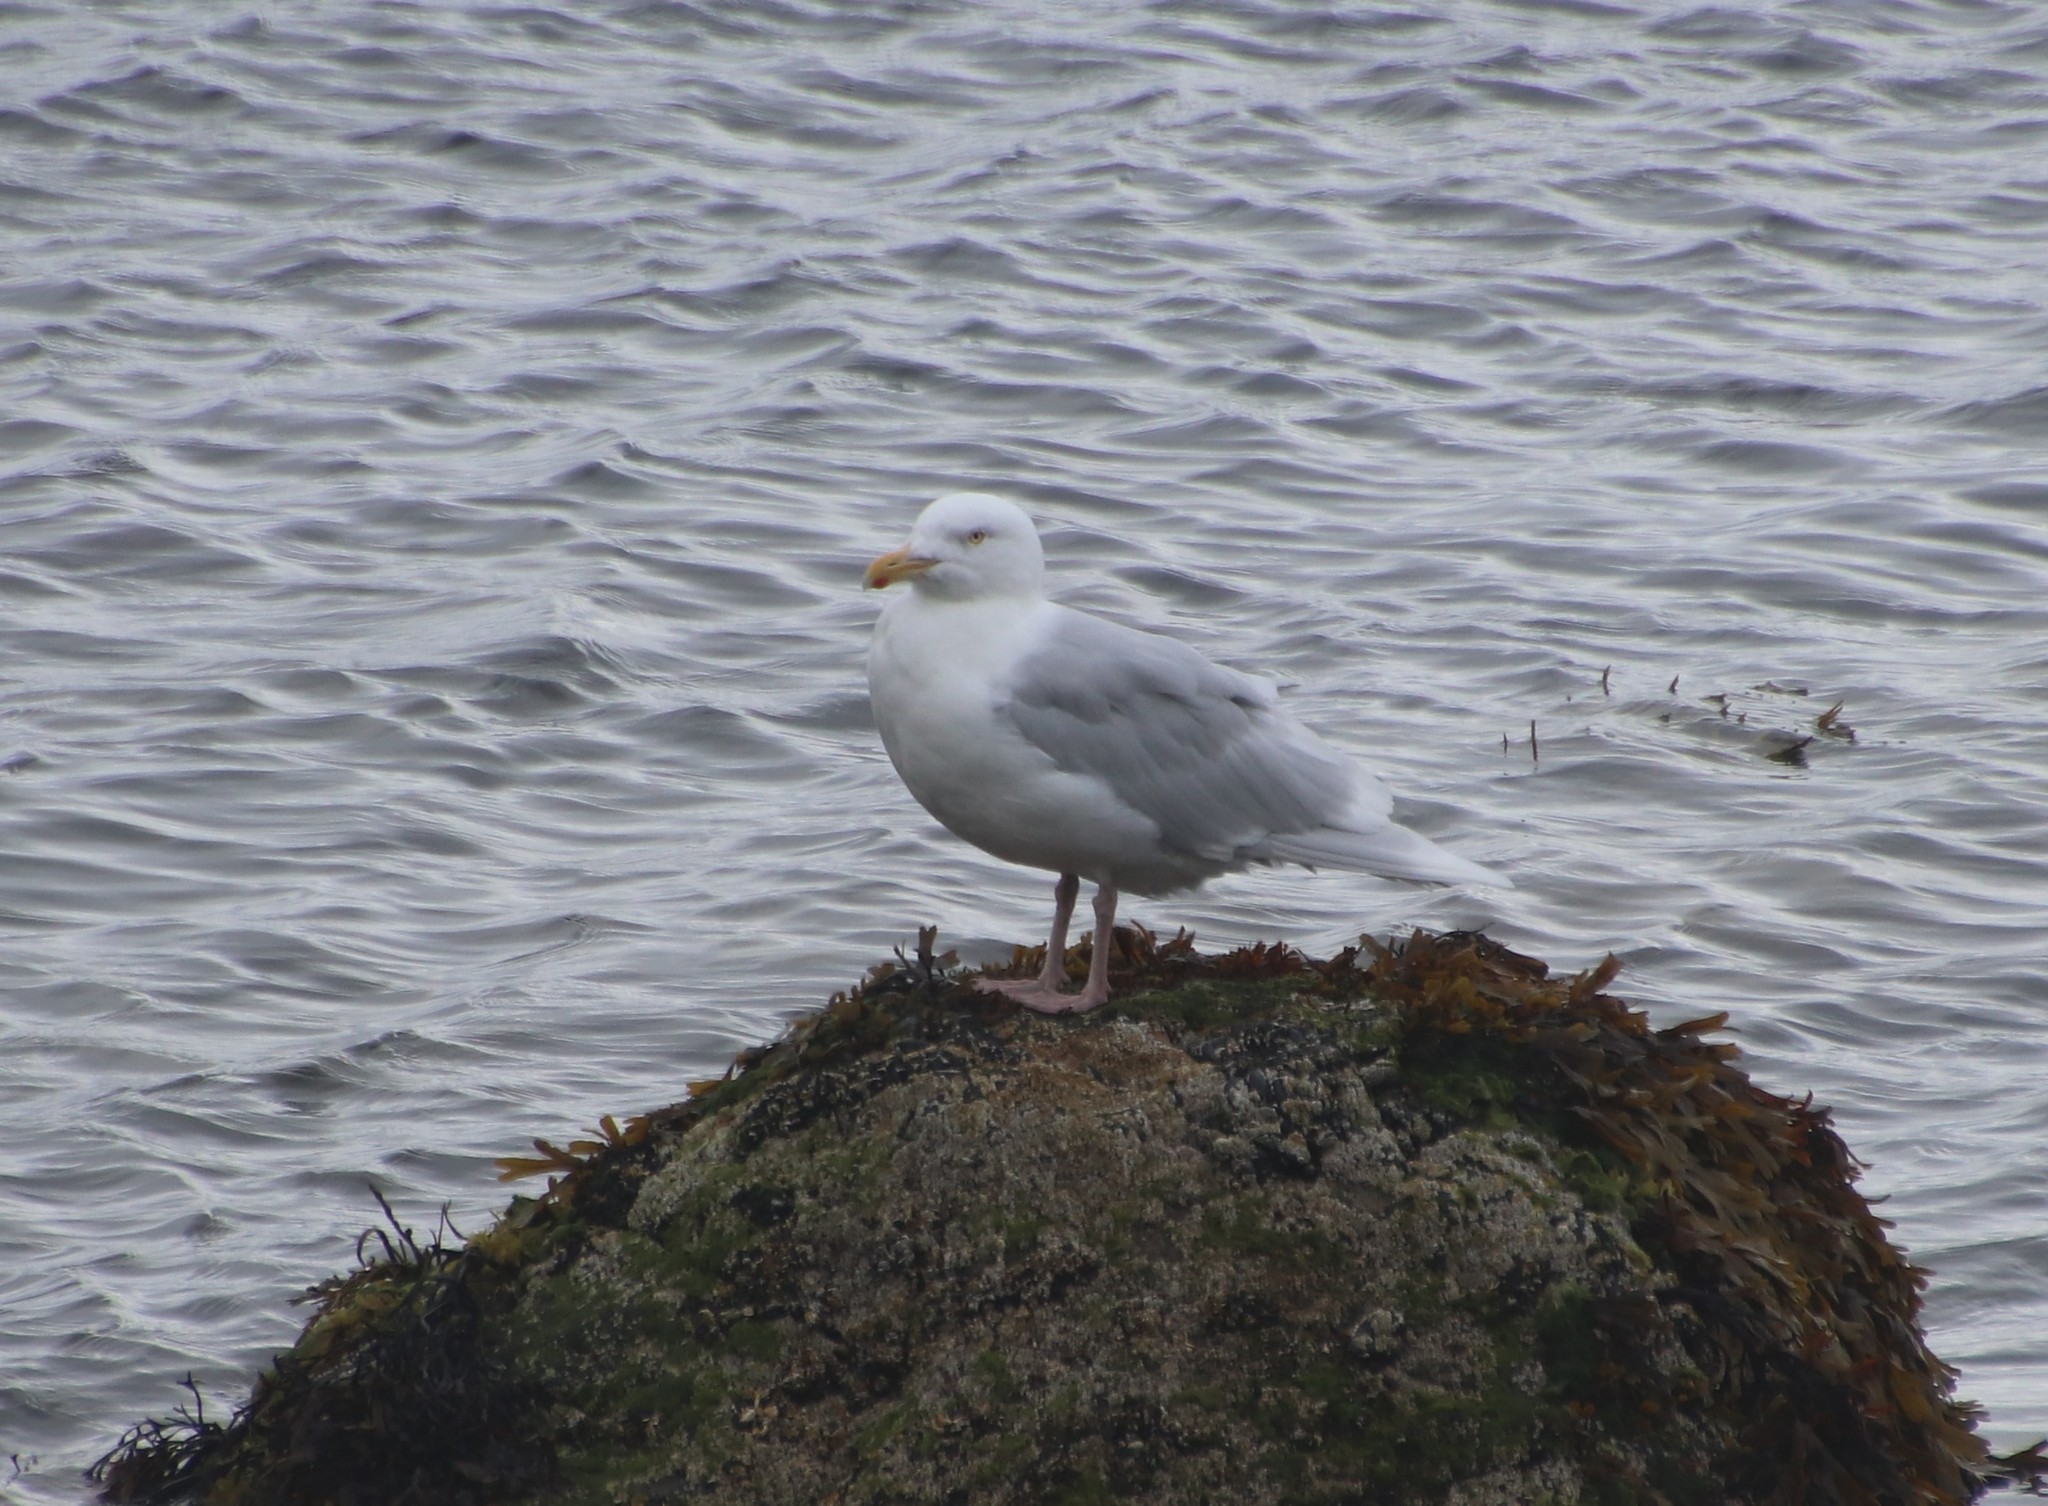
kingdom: Animalia
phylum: Chordata
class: Aves
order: Charadriiformes
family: Laridae
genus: Larus
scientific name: Larus hyperboreus
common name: Glaucous gull
